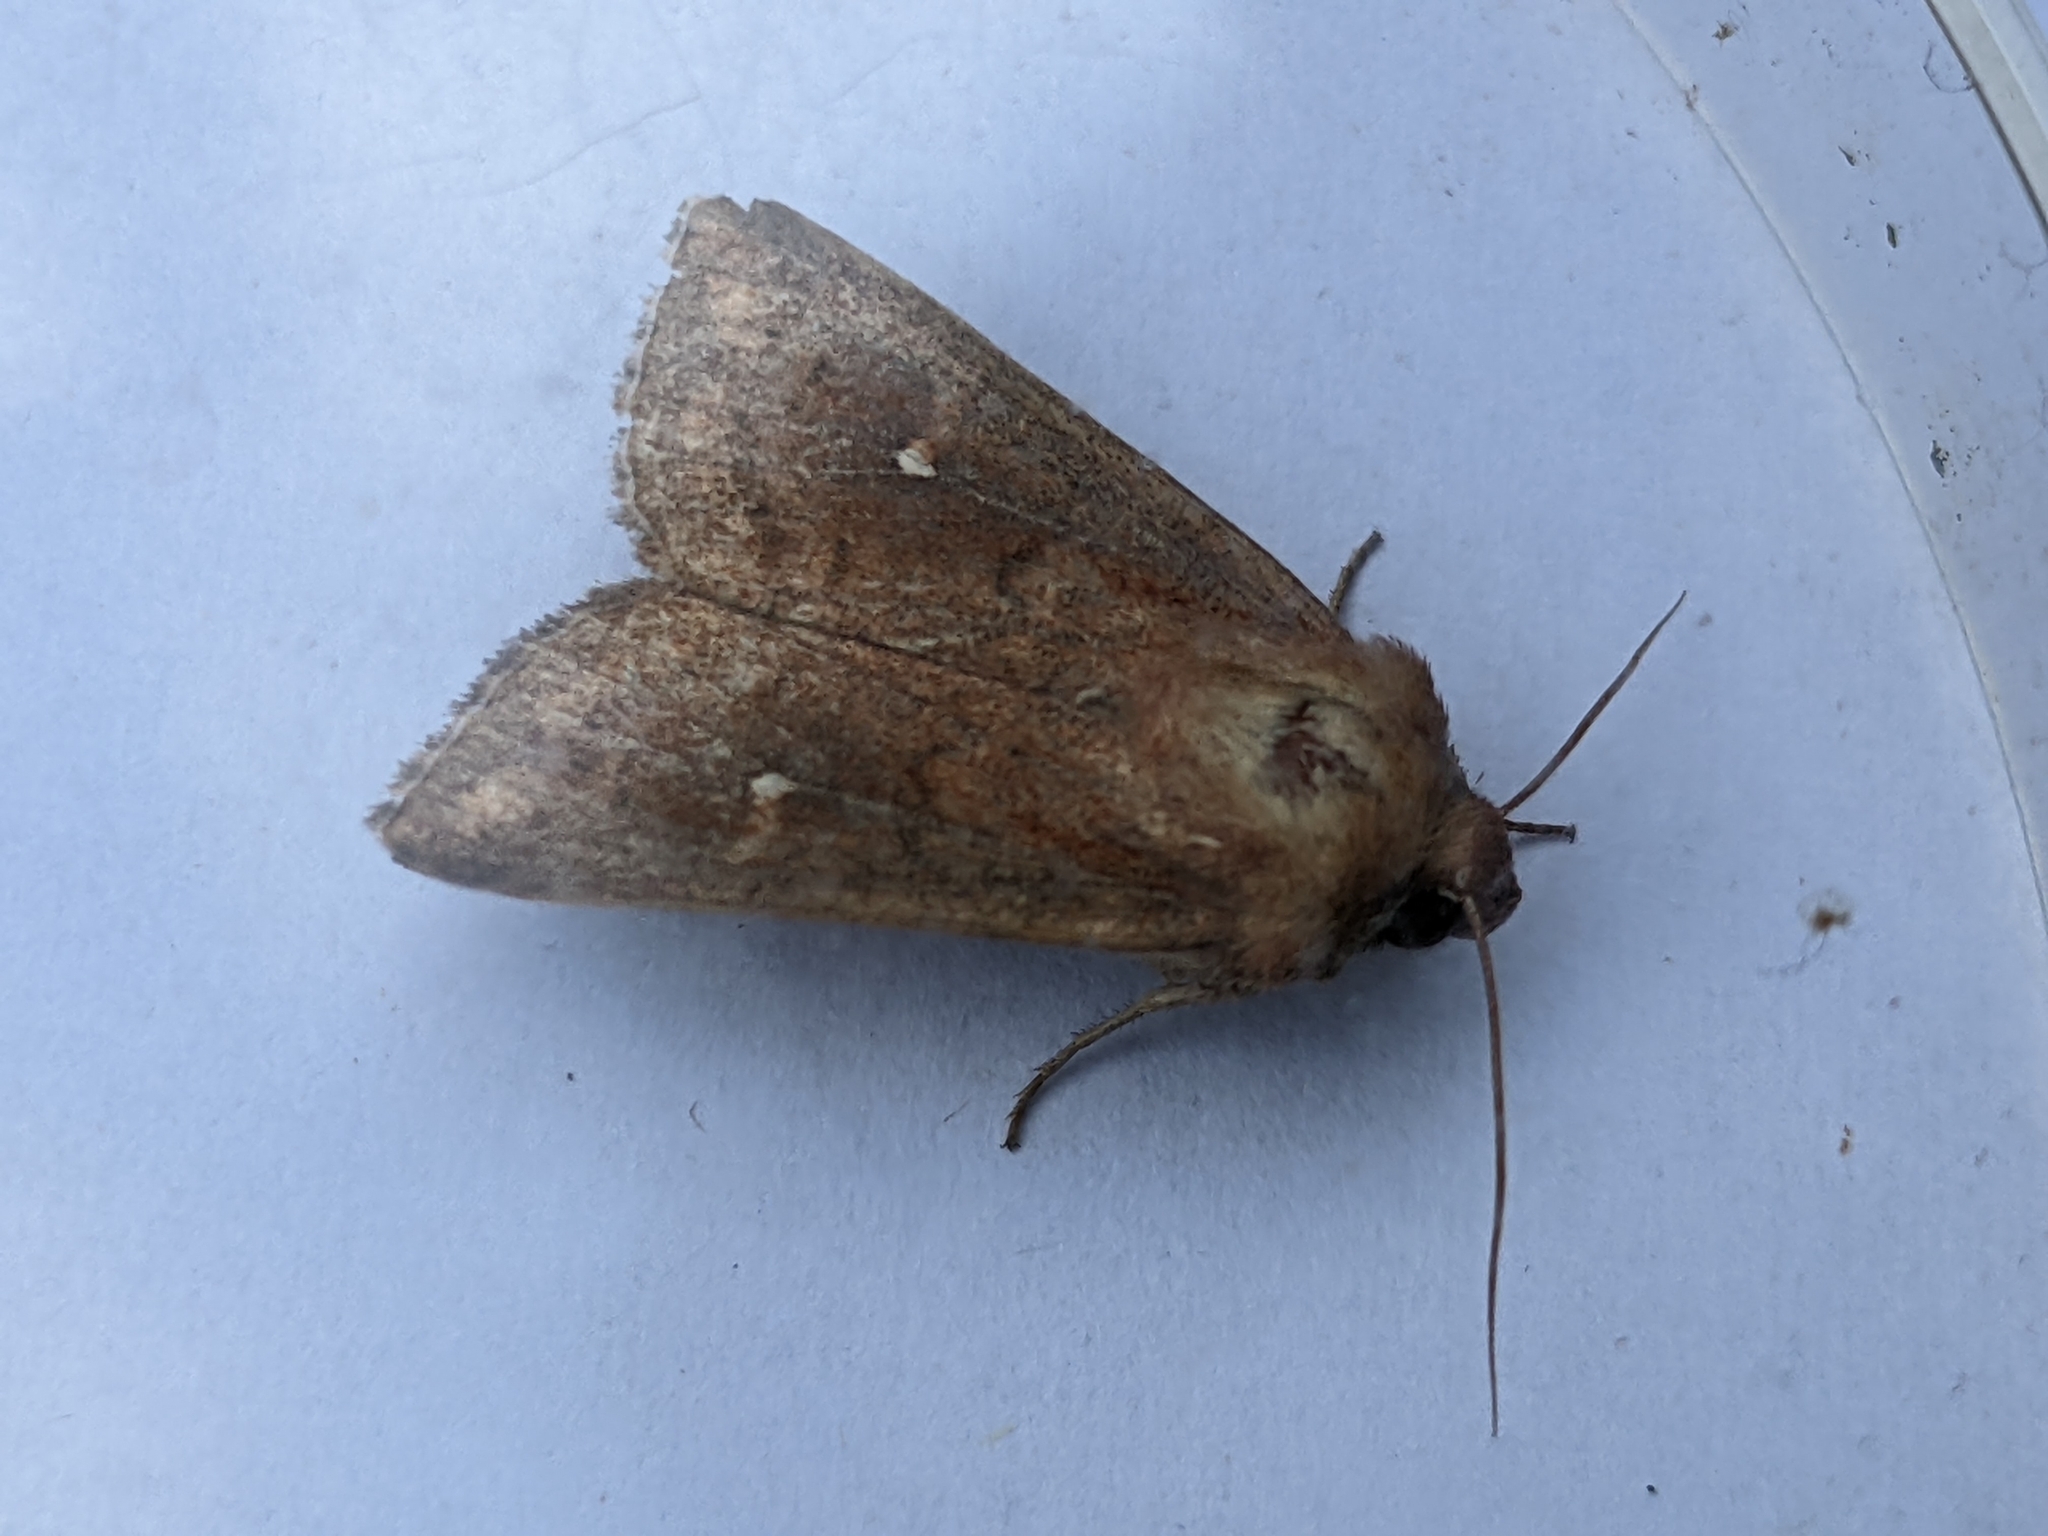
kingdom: Animalia
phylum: Arthropoda
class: Insecta
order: Lepidoptera
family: Noctuidae
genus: Mythimna
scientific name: Mythimna albipuncta
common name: White-point
